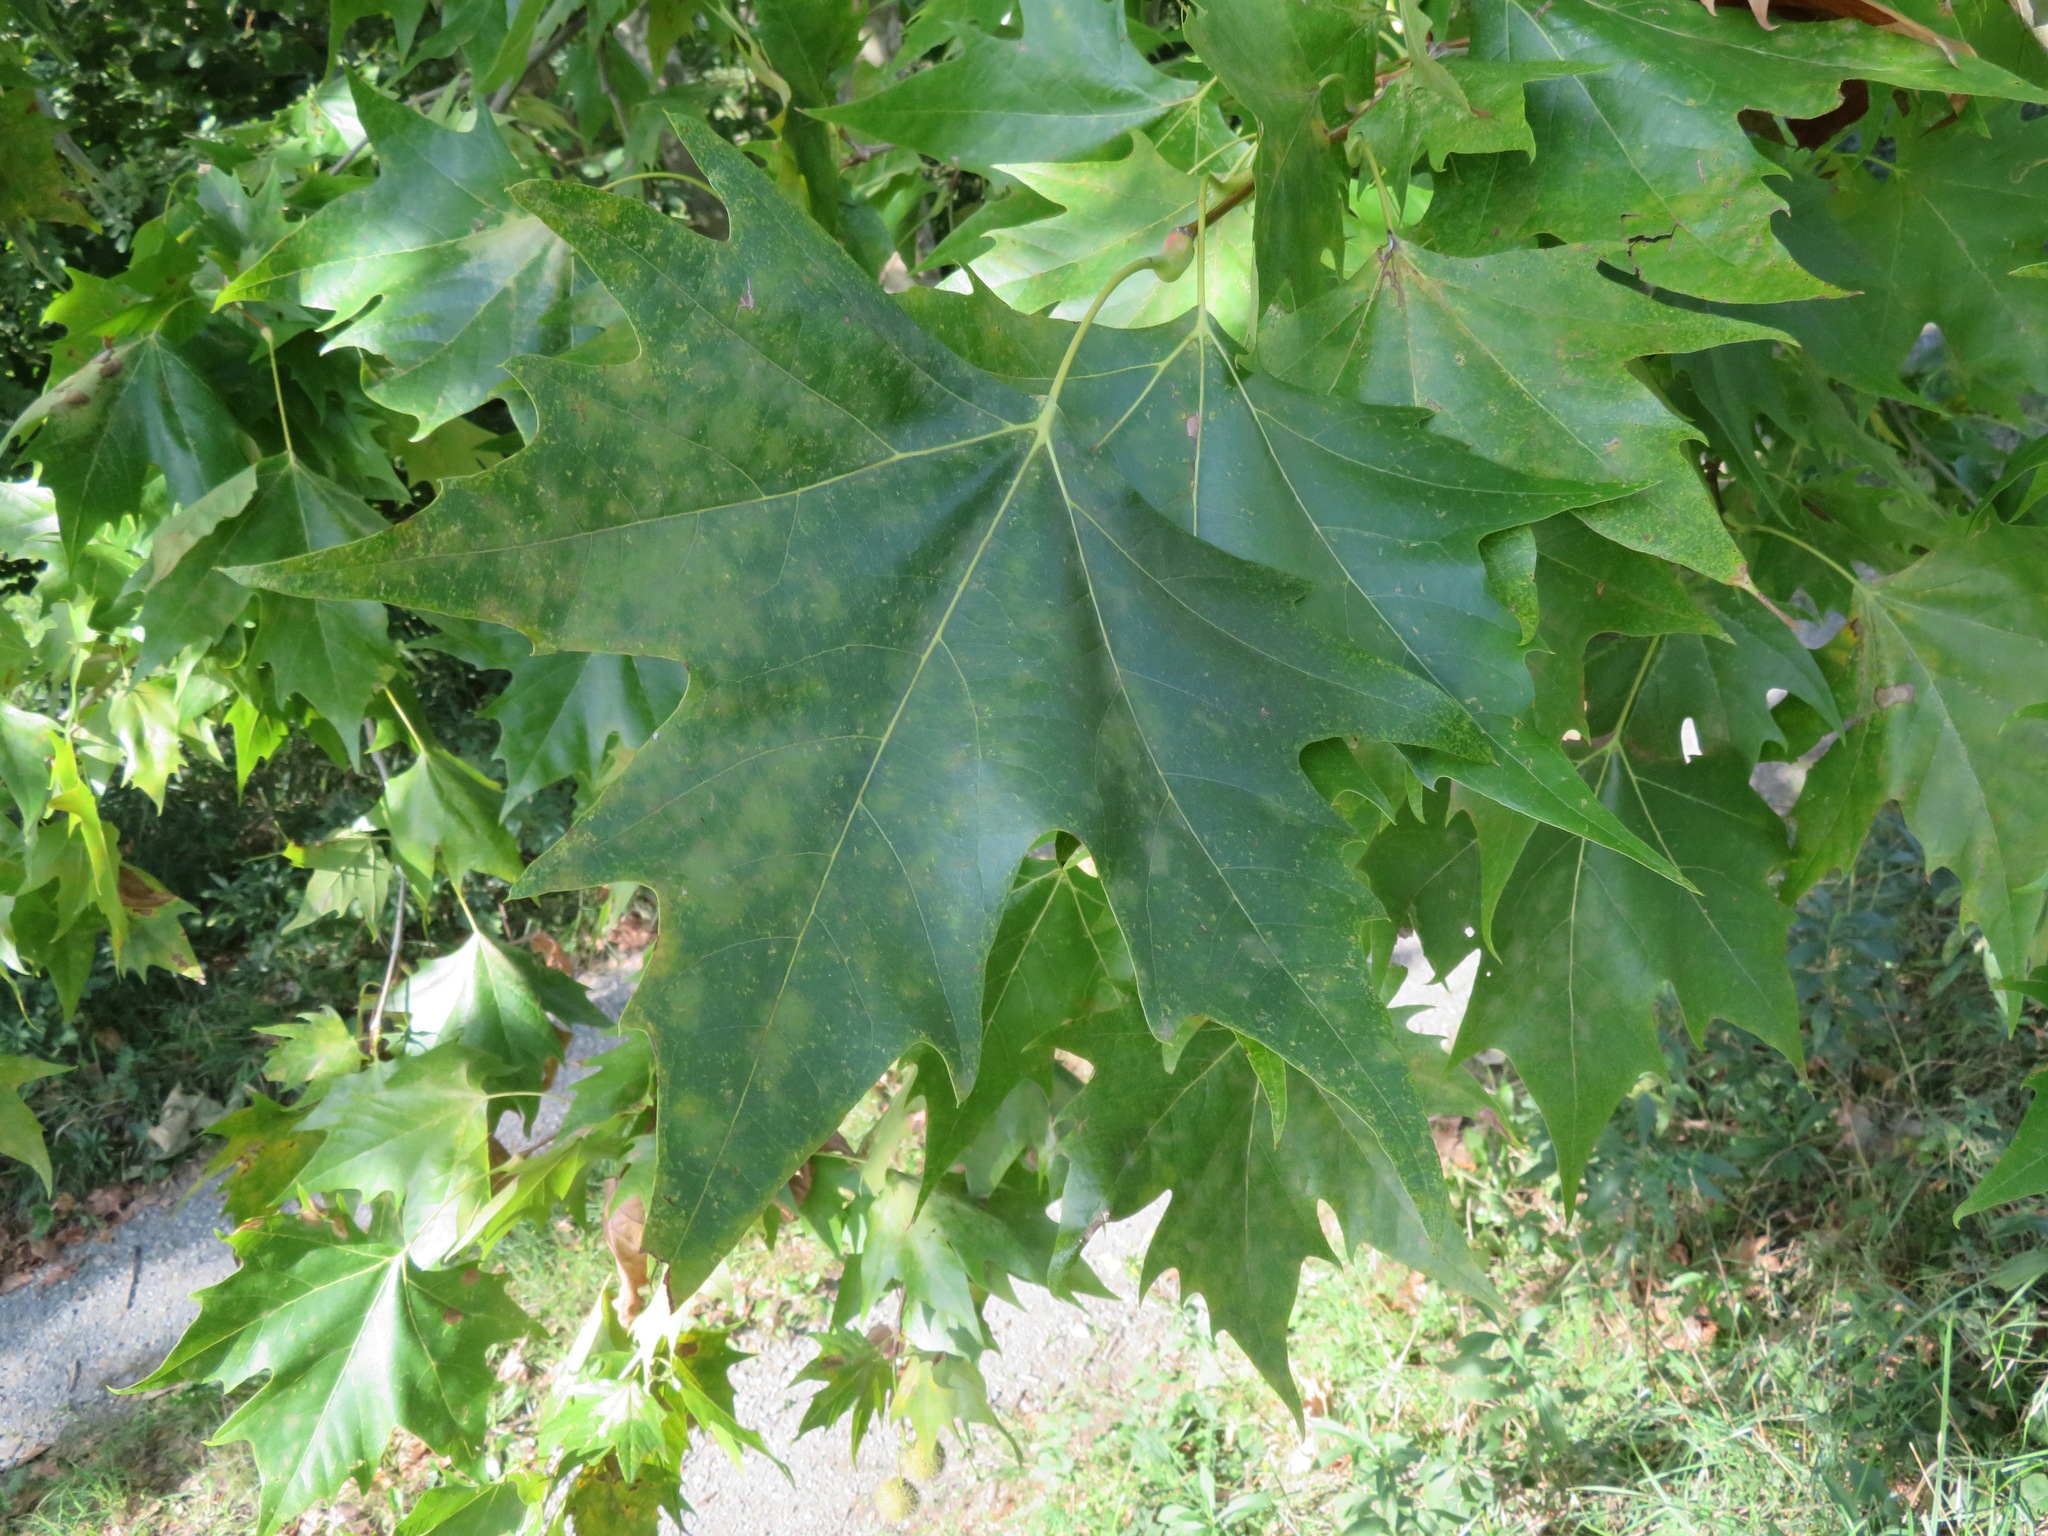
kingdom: Plantae
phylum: Tracheophyta
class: Magnoliopsida
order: Proteales
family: Platanaceae
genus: Platanus
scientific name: Platanus hispanica
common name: London plane
